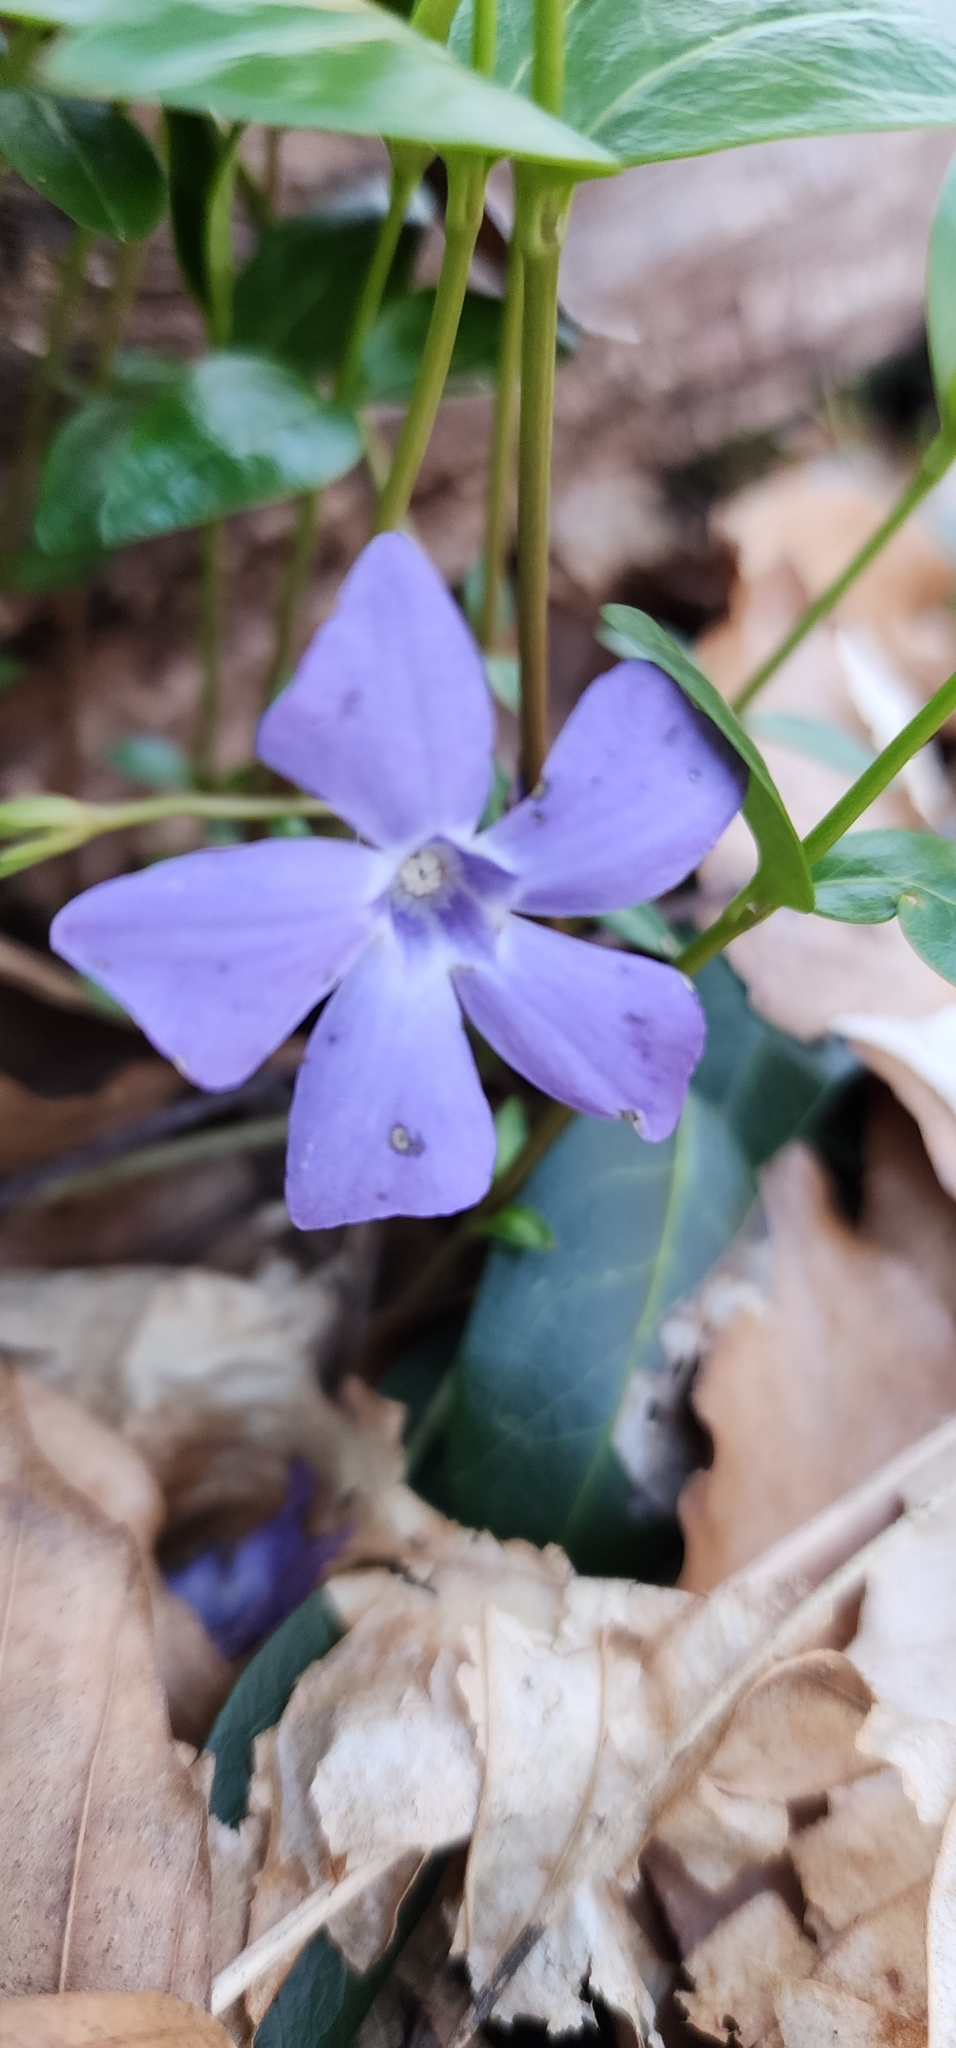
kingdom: Plantae
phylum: Tracheophyta
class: Magnoliopsida
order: Gentianales
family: Apocynaceae
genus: Vinca
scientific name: Vinca minor
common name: Lesser periwinkle
